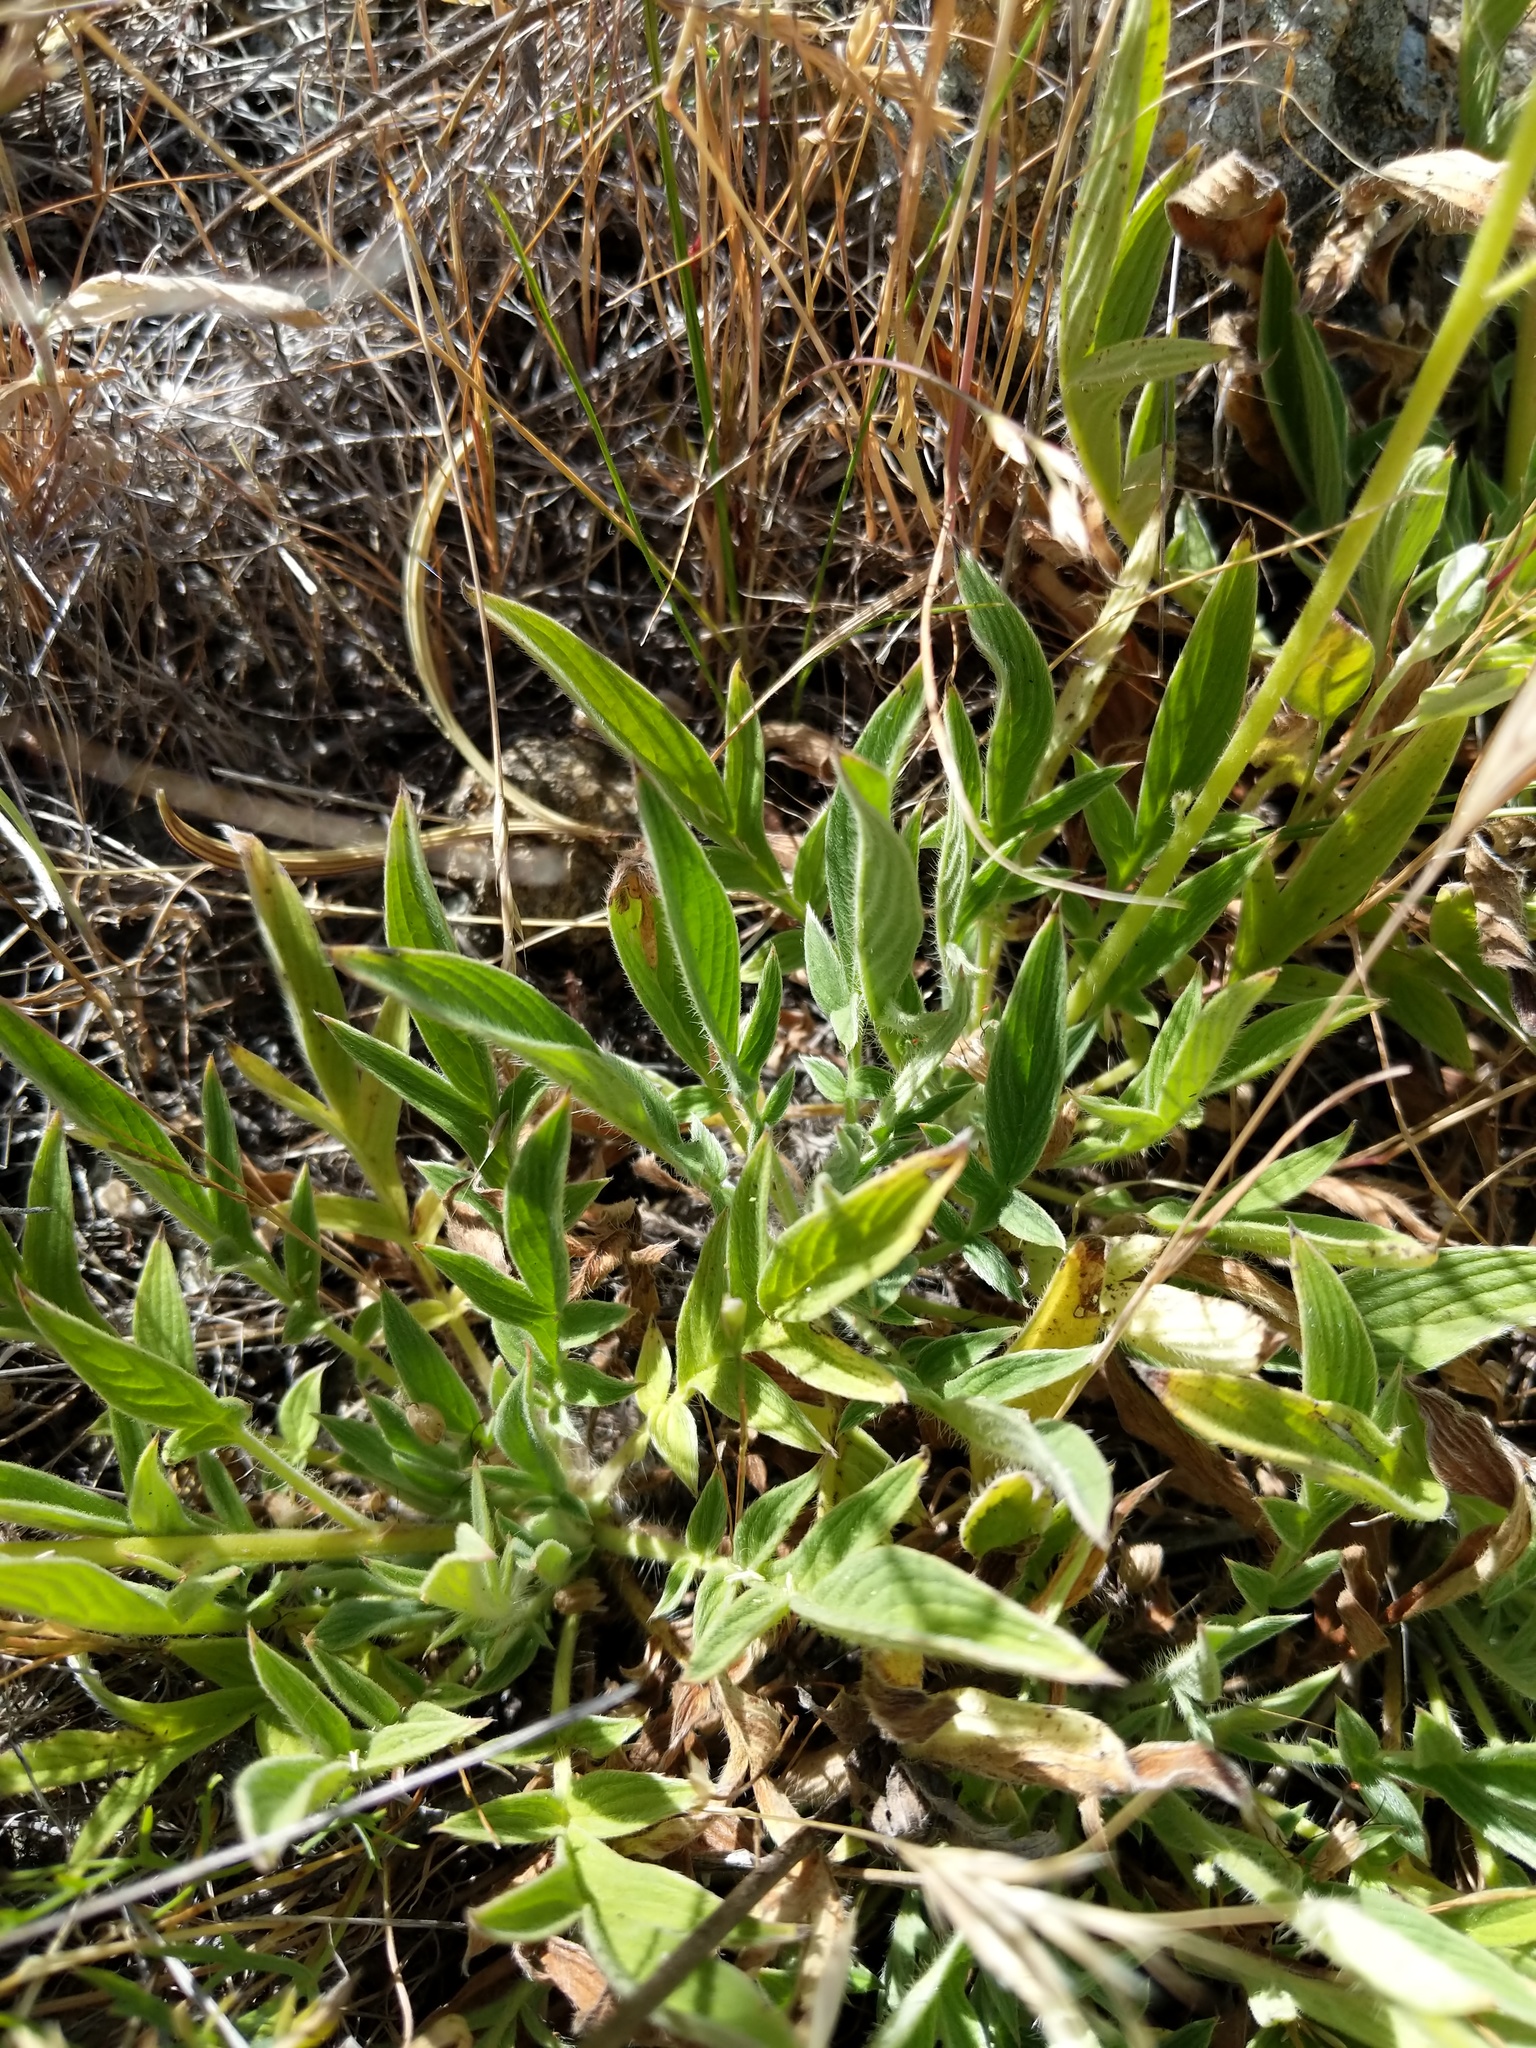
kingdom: Plantae
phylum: Tracheophyta
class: Magnoliopsida
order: Boraginales
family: Hydrophyllaceae
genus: Phacelia
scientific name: Phacelia imbricata
